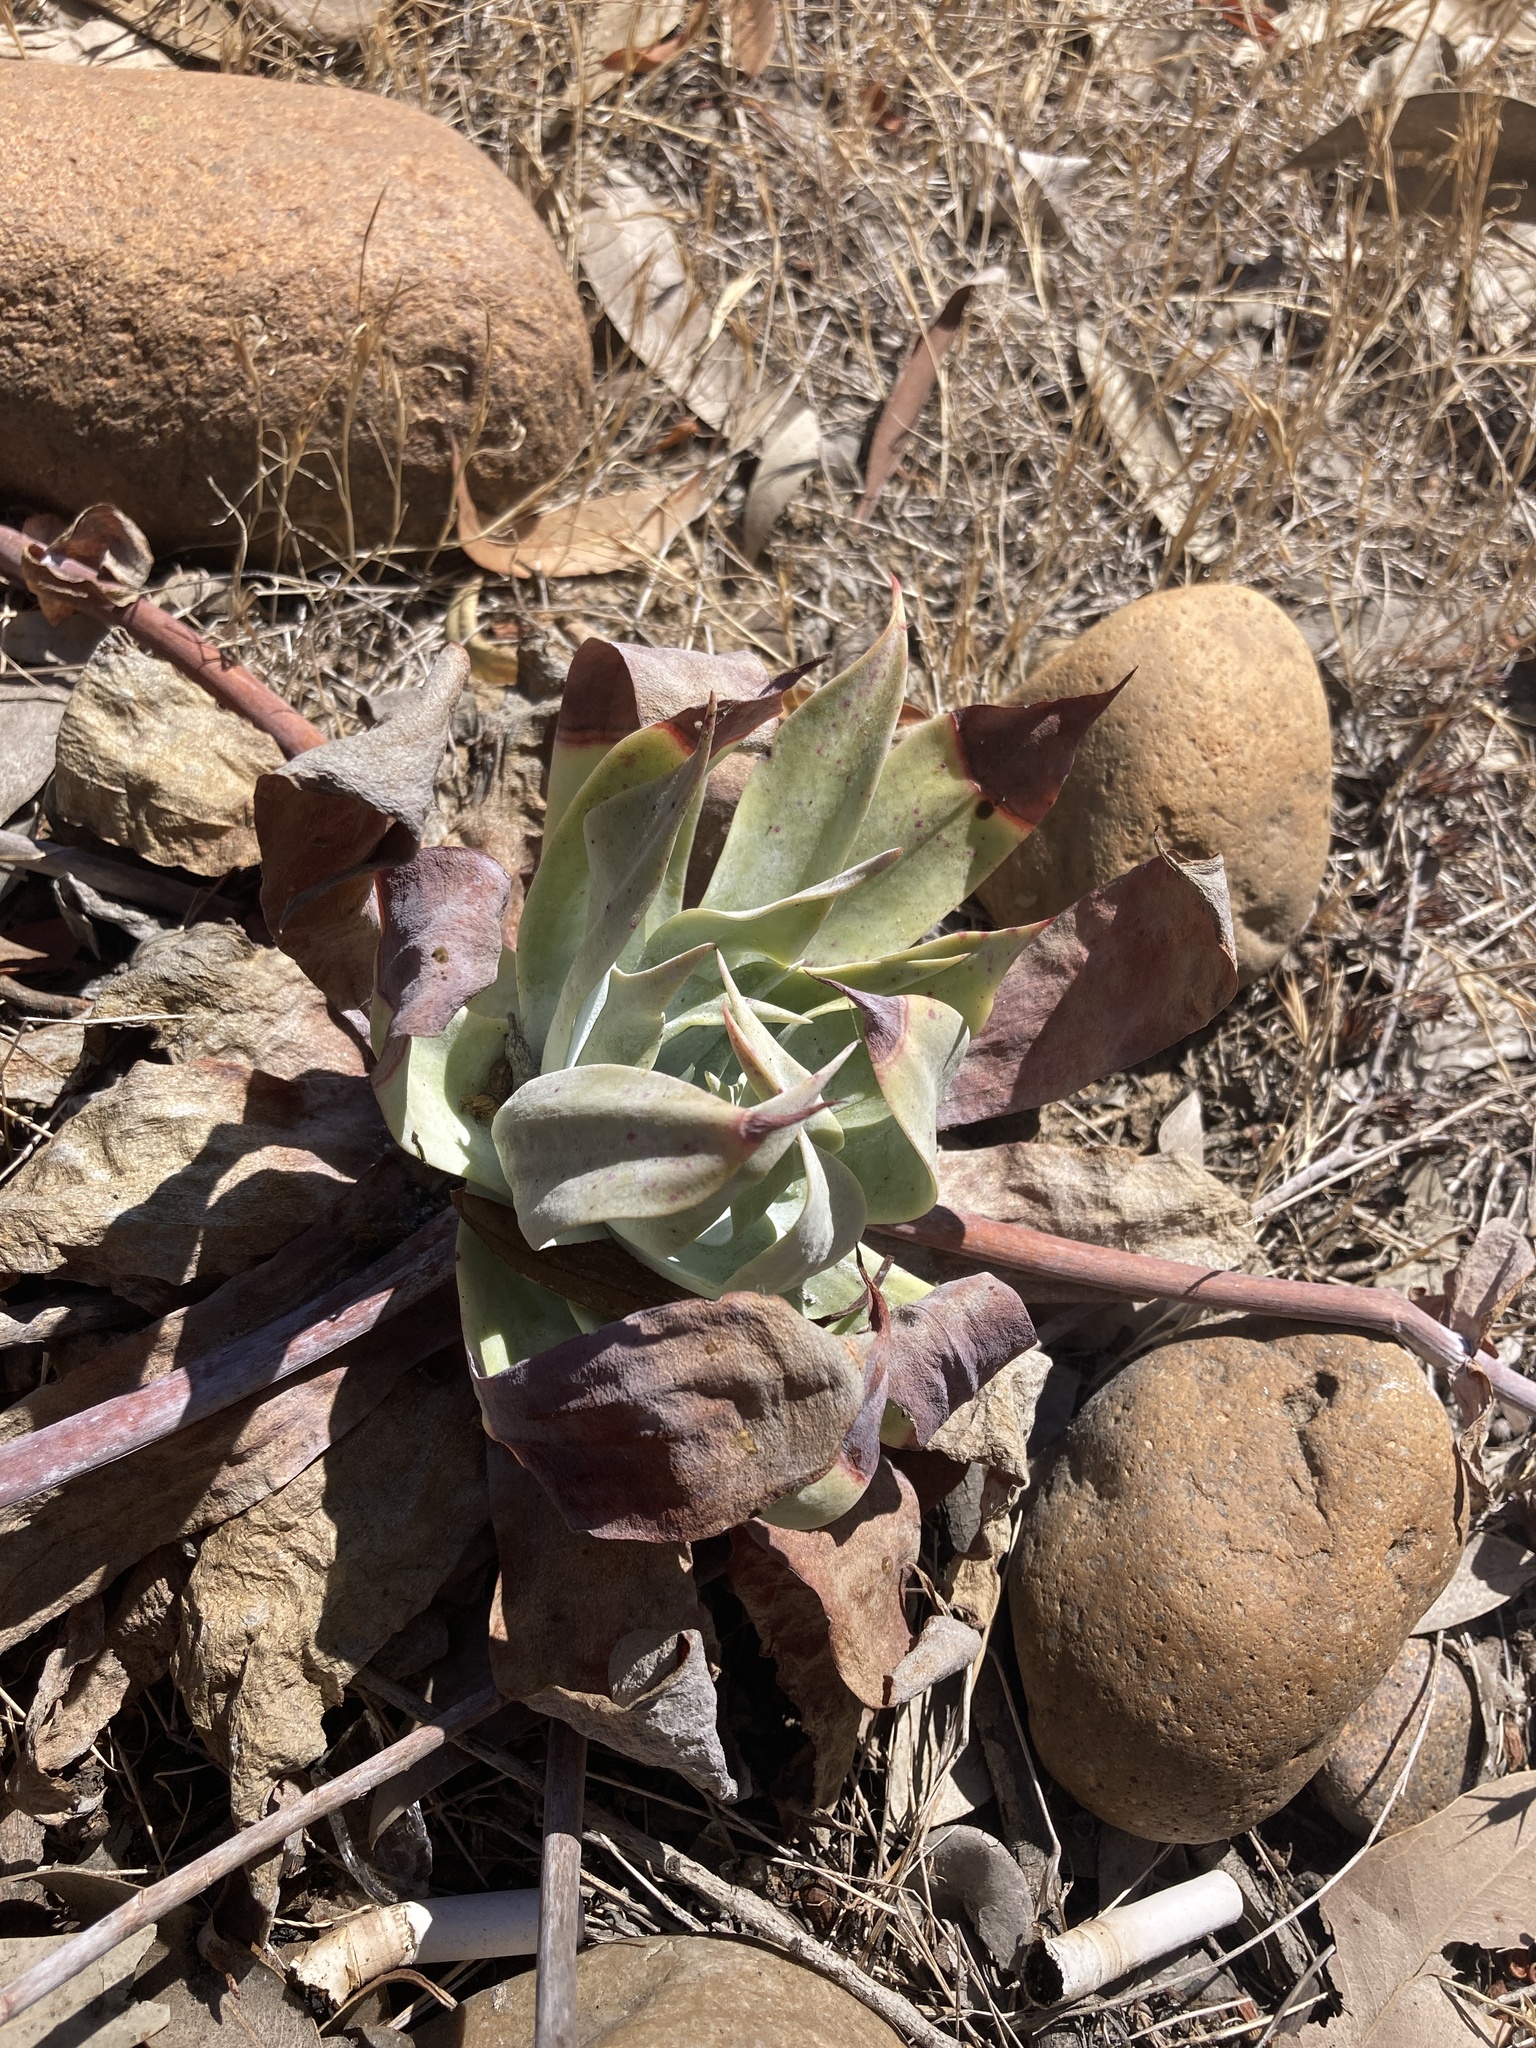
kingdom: Plantae
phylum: Tracheophyta
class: Magnoliopsida
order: Saxifragales
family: Crassulaceae
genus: Dudleya
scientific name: Dudleya pulverulenta
